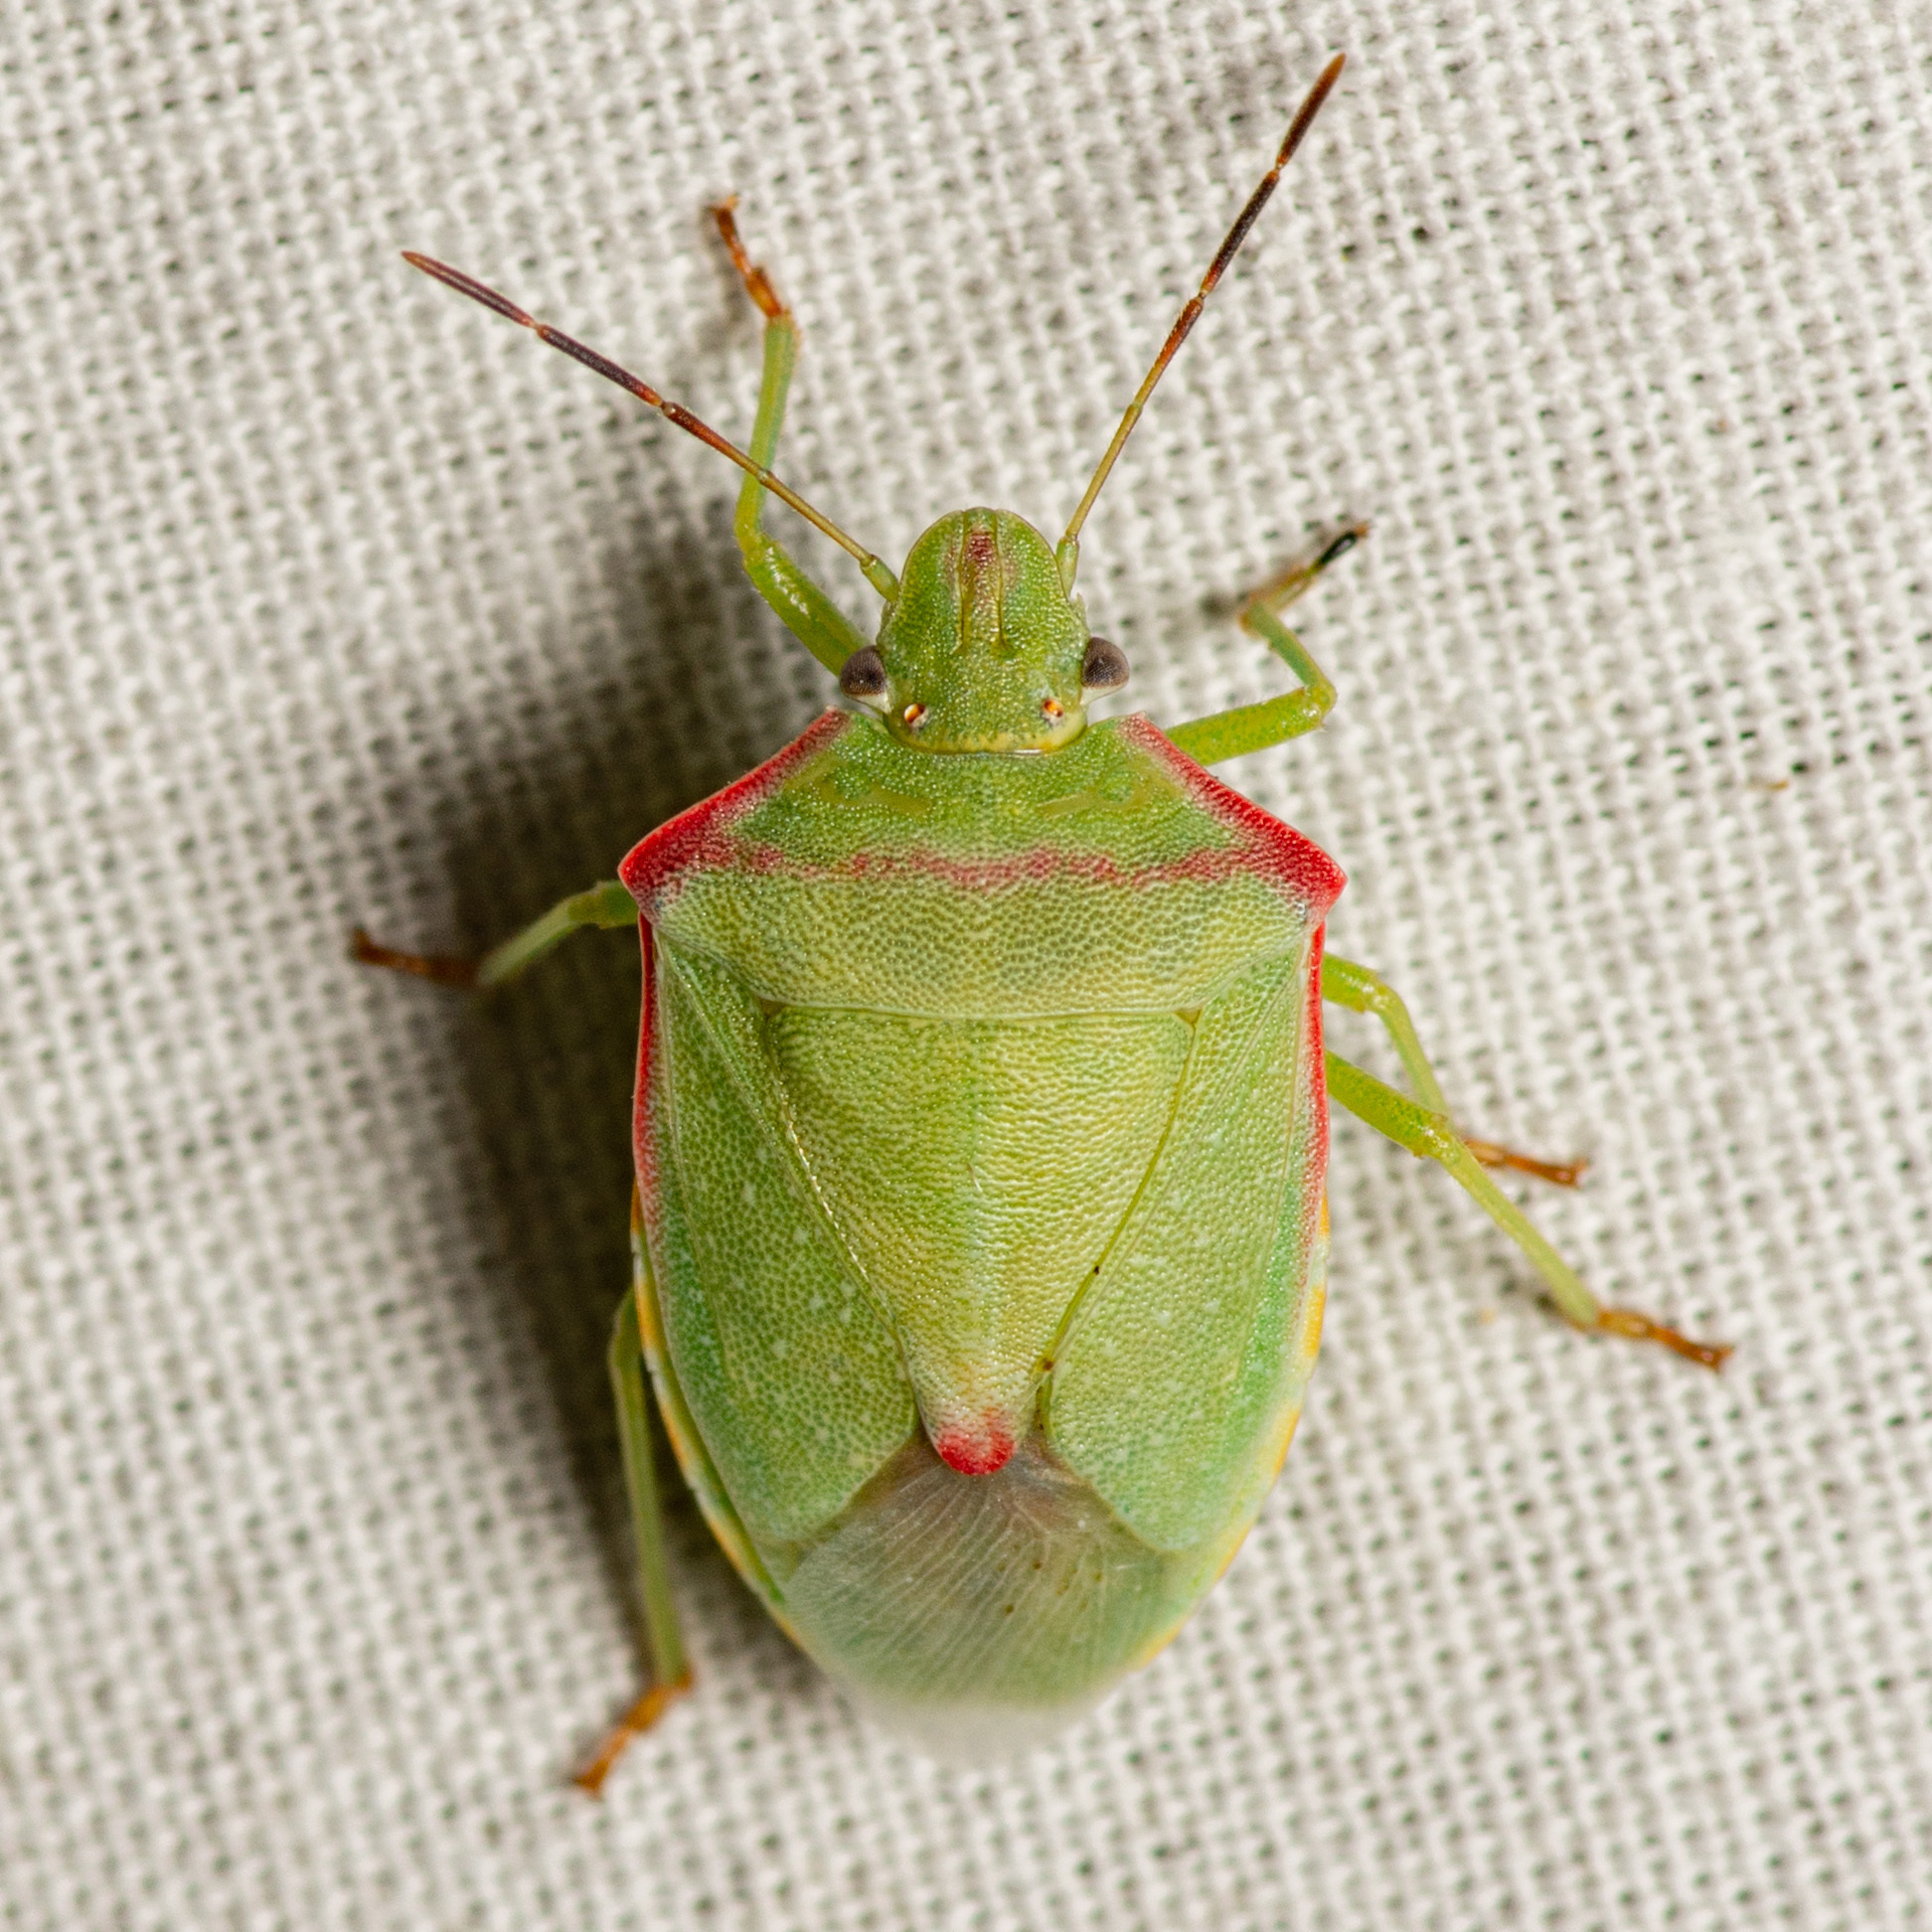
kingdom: Animalia
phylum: Arthropoda
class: Insecta
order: Hemiptera
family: Pentatomidae
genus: Thyanta
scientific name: Thyanta custator
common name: Stink bug
